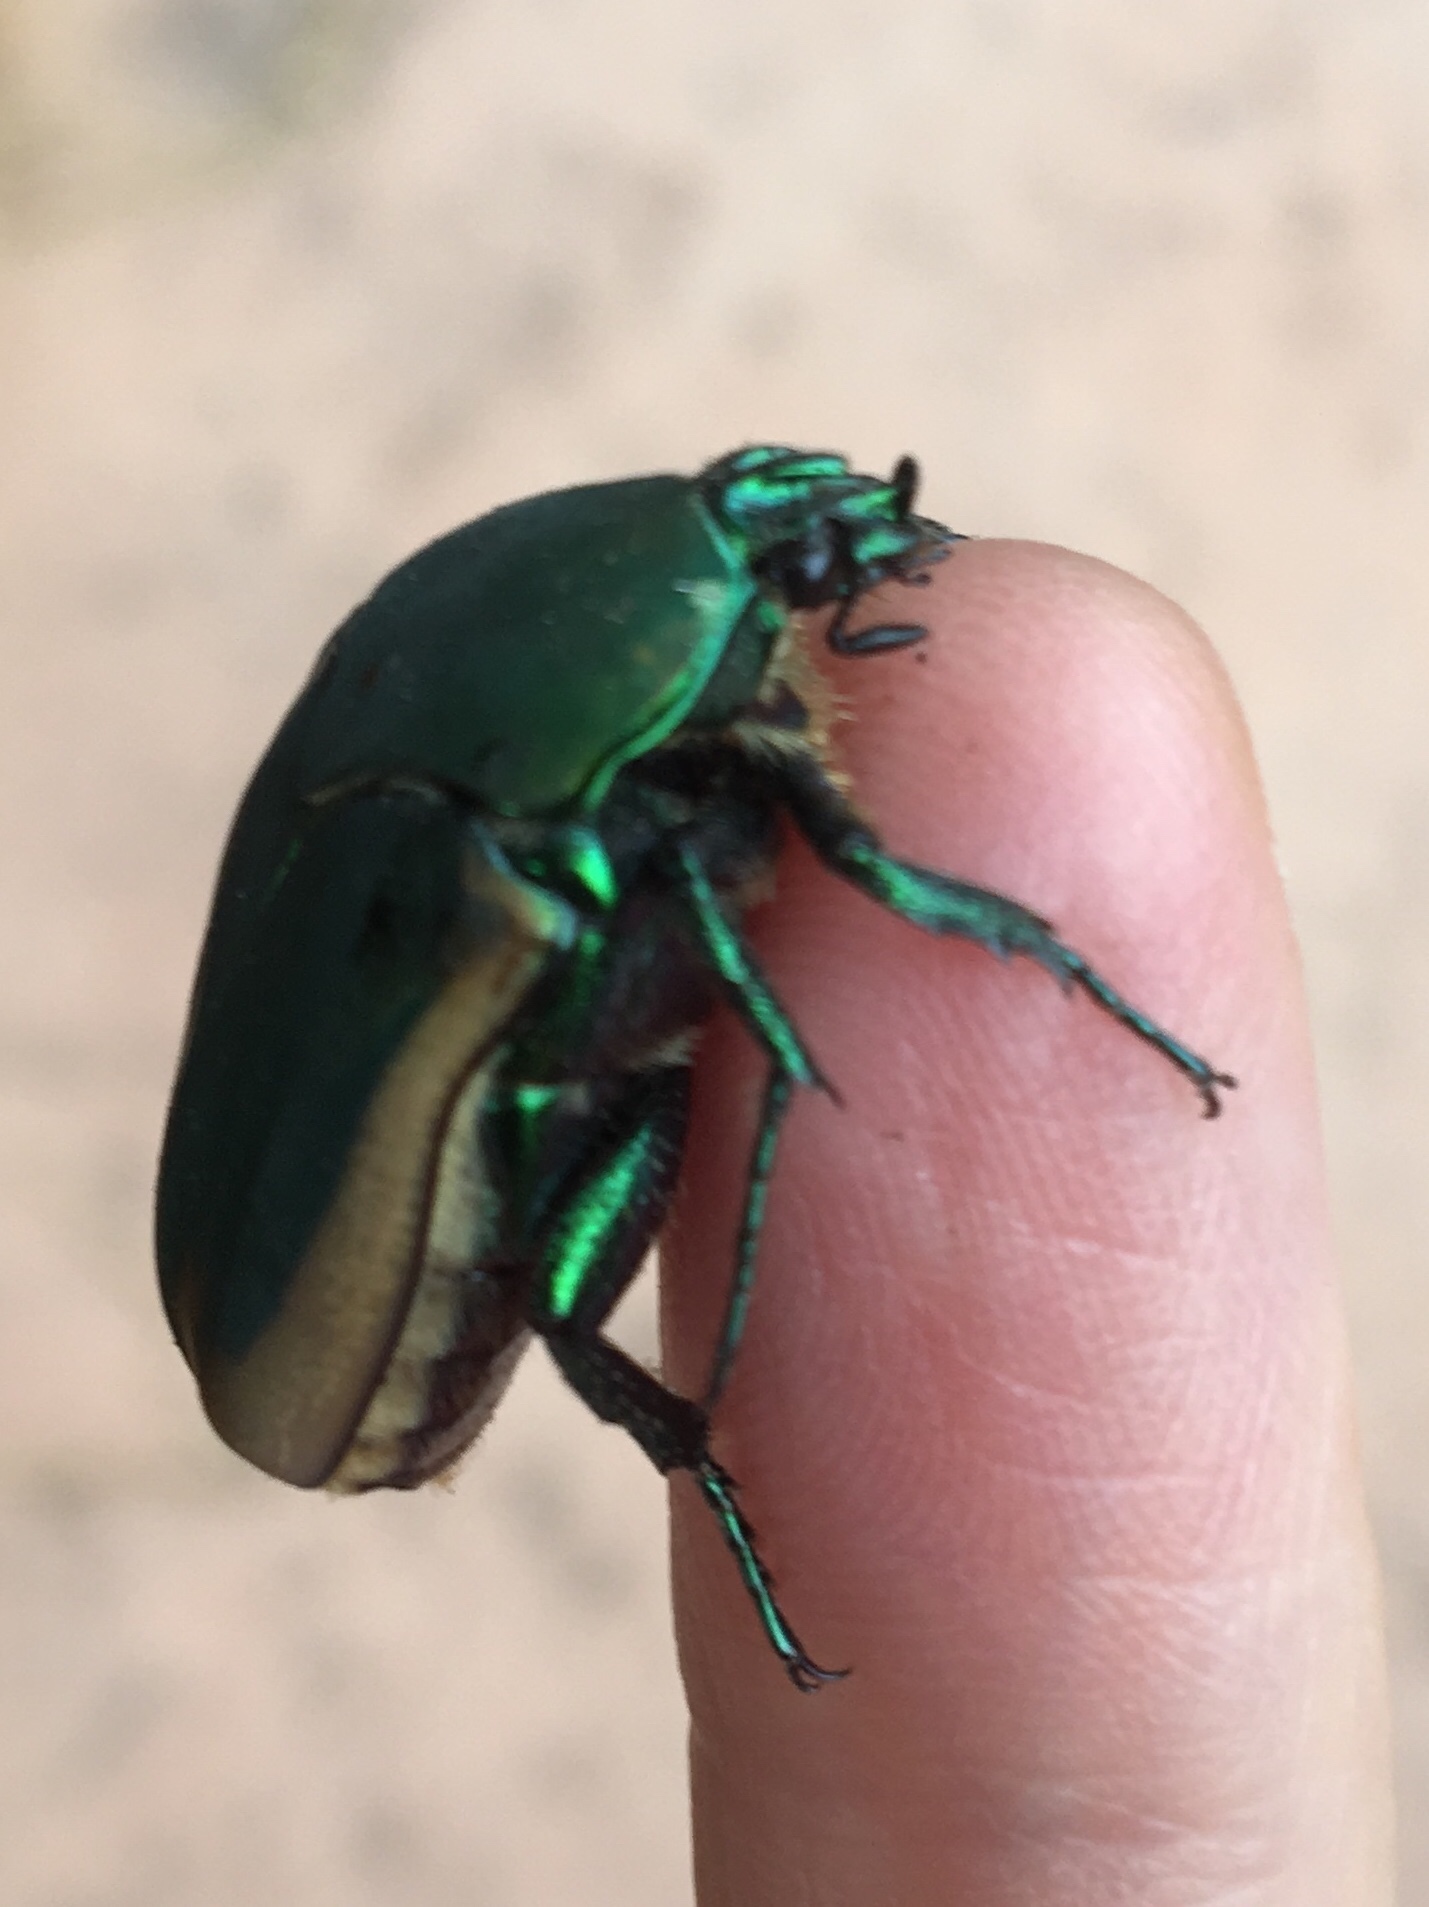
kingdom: Animalia
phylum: Arthropoda
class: Insecta
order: Coleoptera
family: Scarabaeidae
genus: Cotinis
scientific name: Cotinis mutabilis
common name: Figeater beetle
